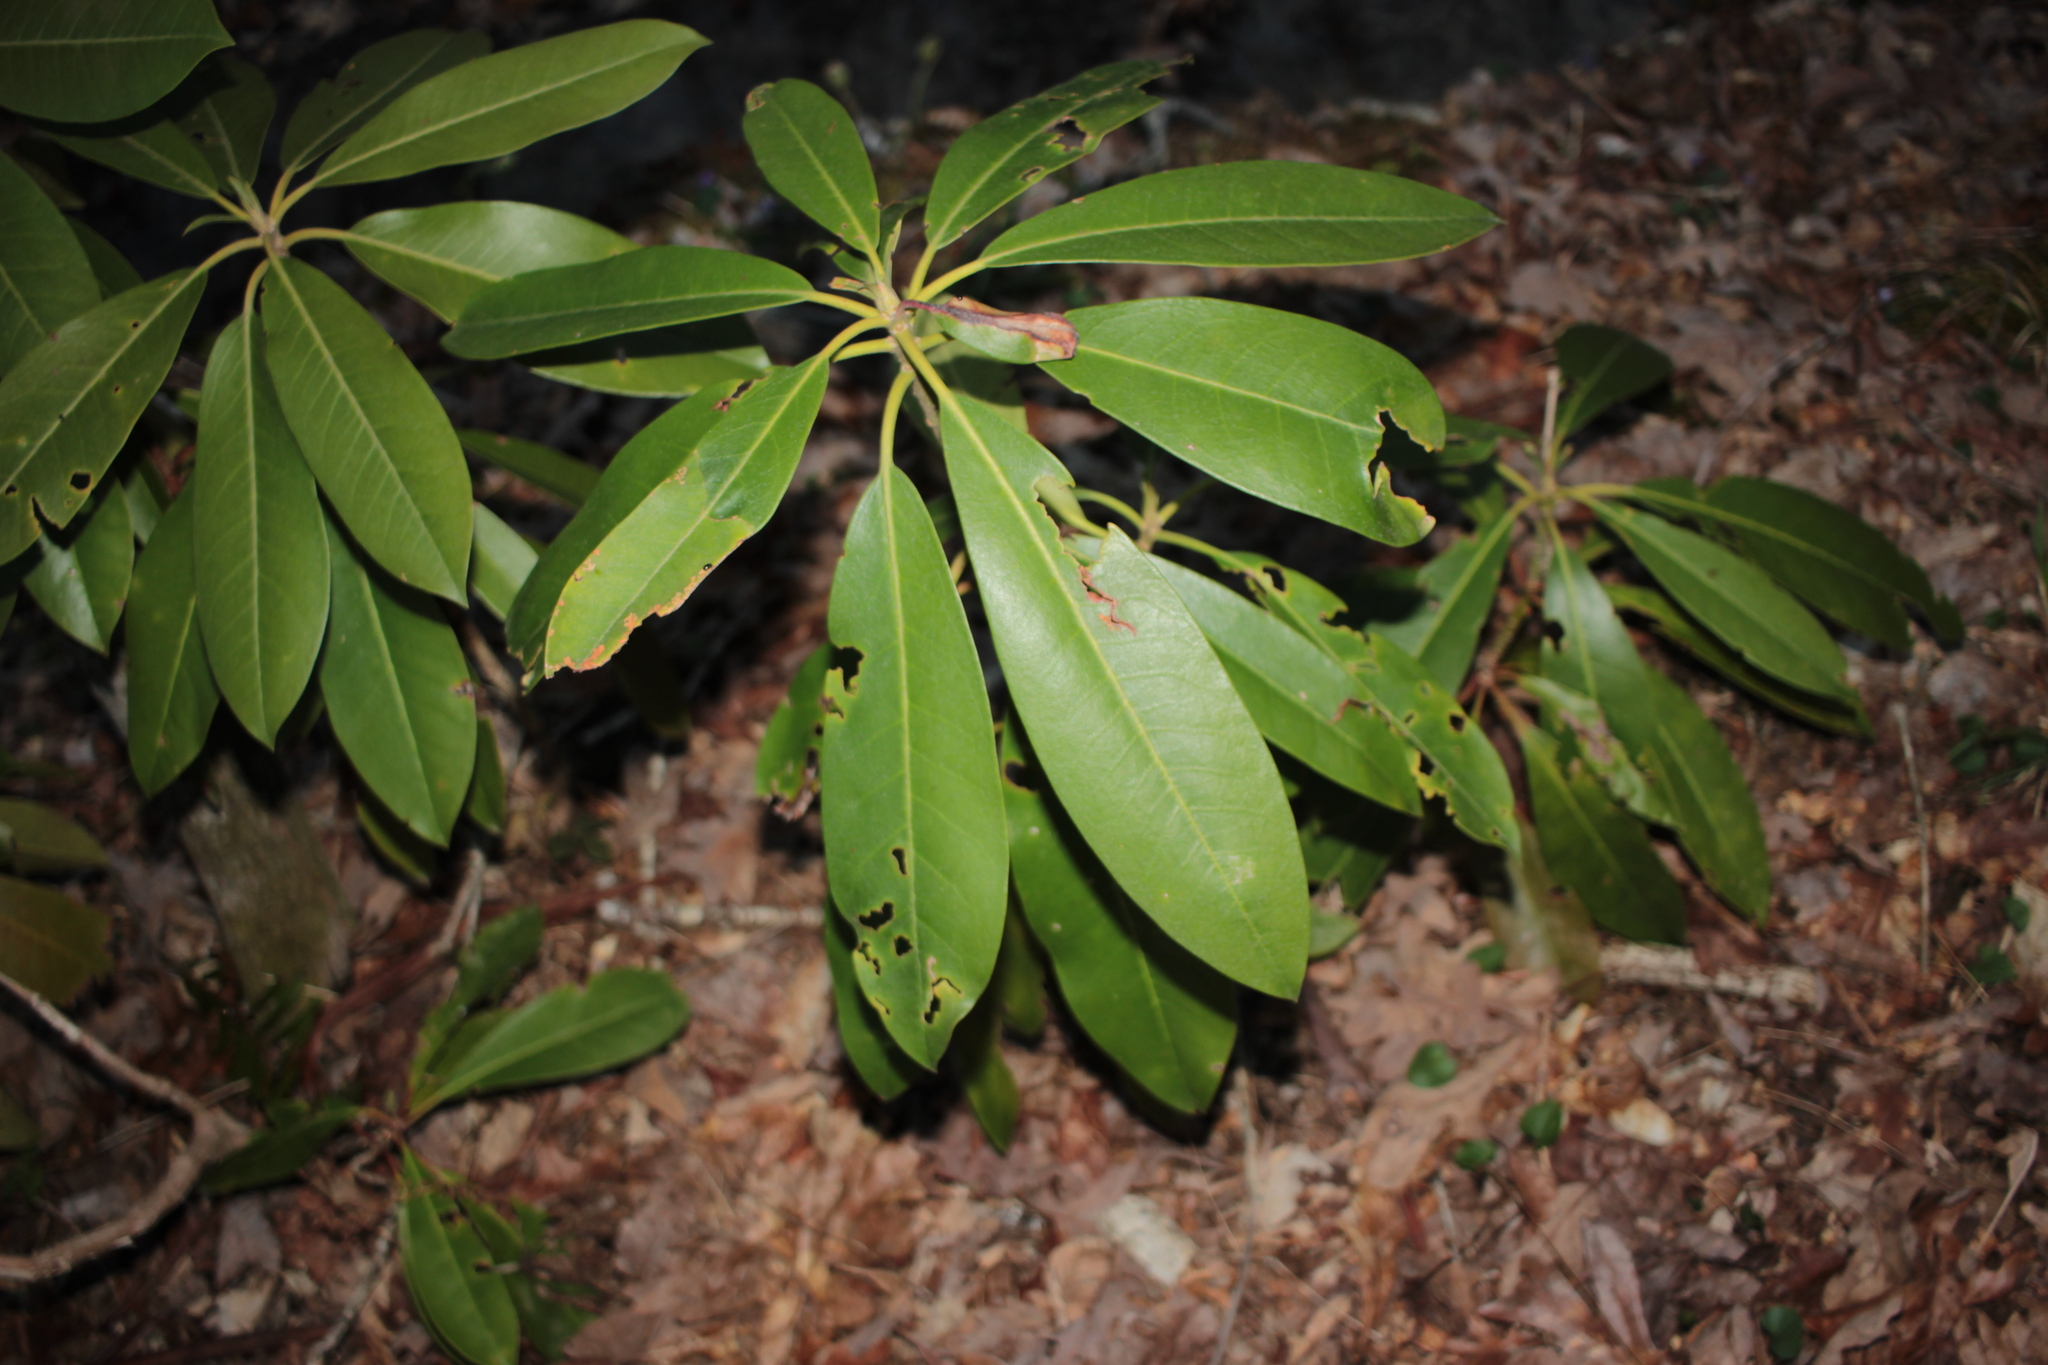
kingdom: Plantae
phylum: Tracheophyta
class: Magnoliopsida
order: Ericales
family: Ericaceae
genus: Rhododendron
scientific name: Rhododendron maximum
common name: Great rhododendron
